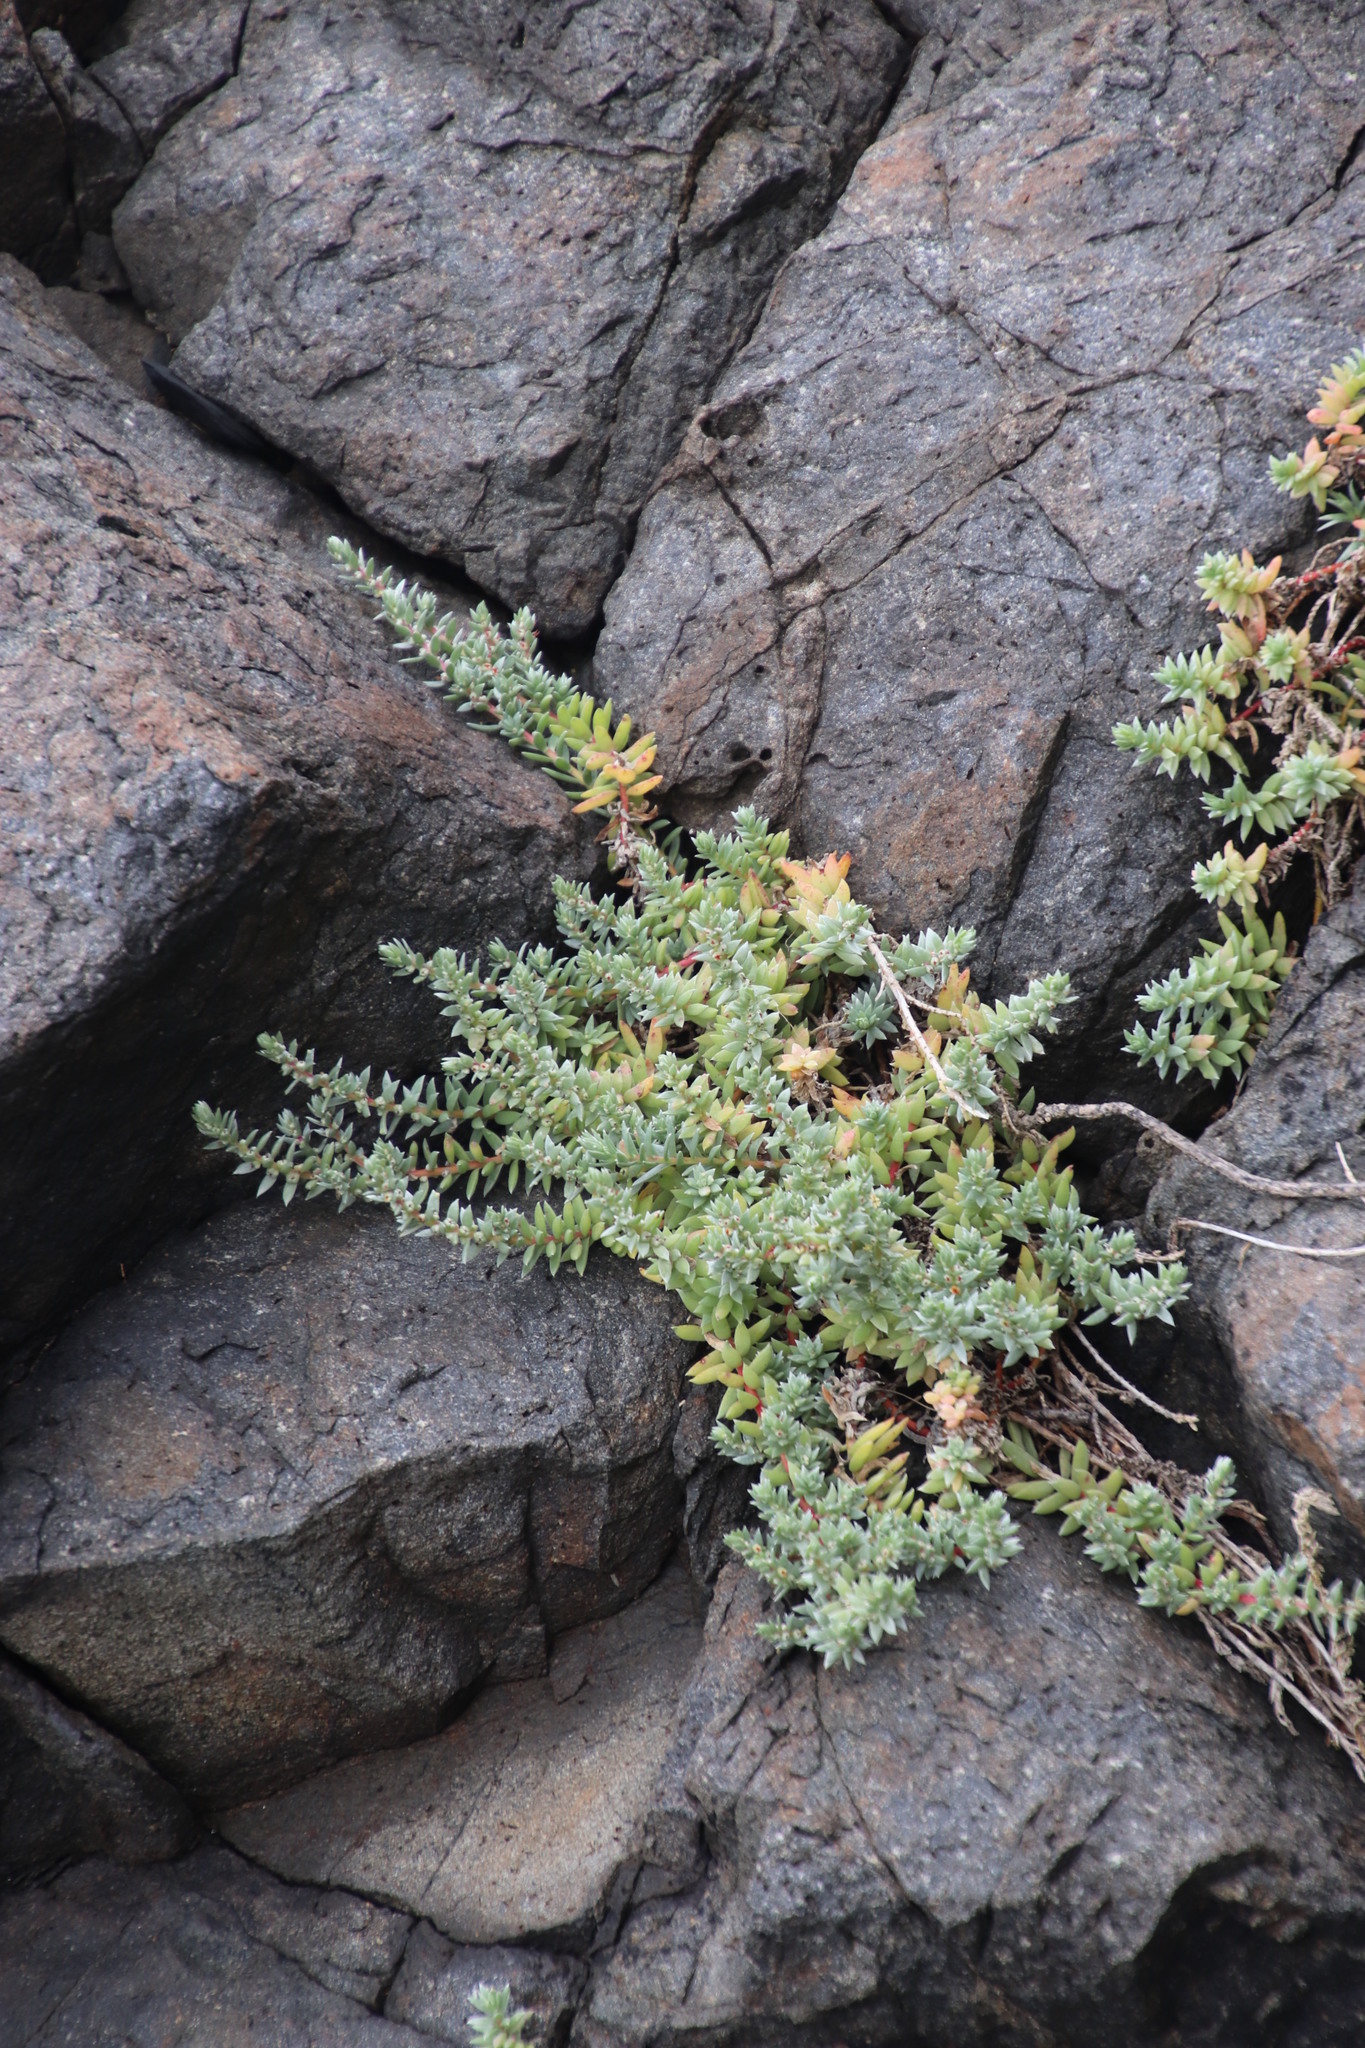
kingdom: Plantae
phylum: Tracheophyta
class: Magnoliopsida
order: Caryophyllales
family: Amaranthaceae
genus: Chenolea
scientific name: Chenolea diffusa
